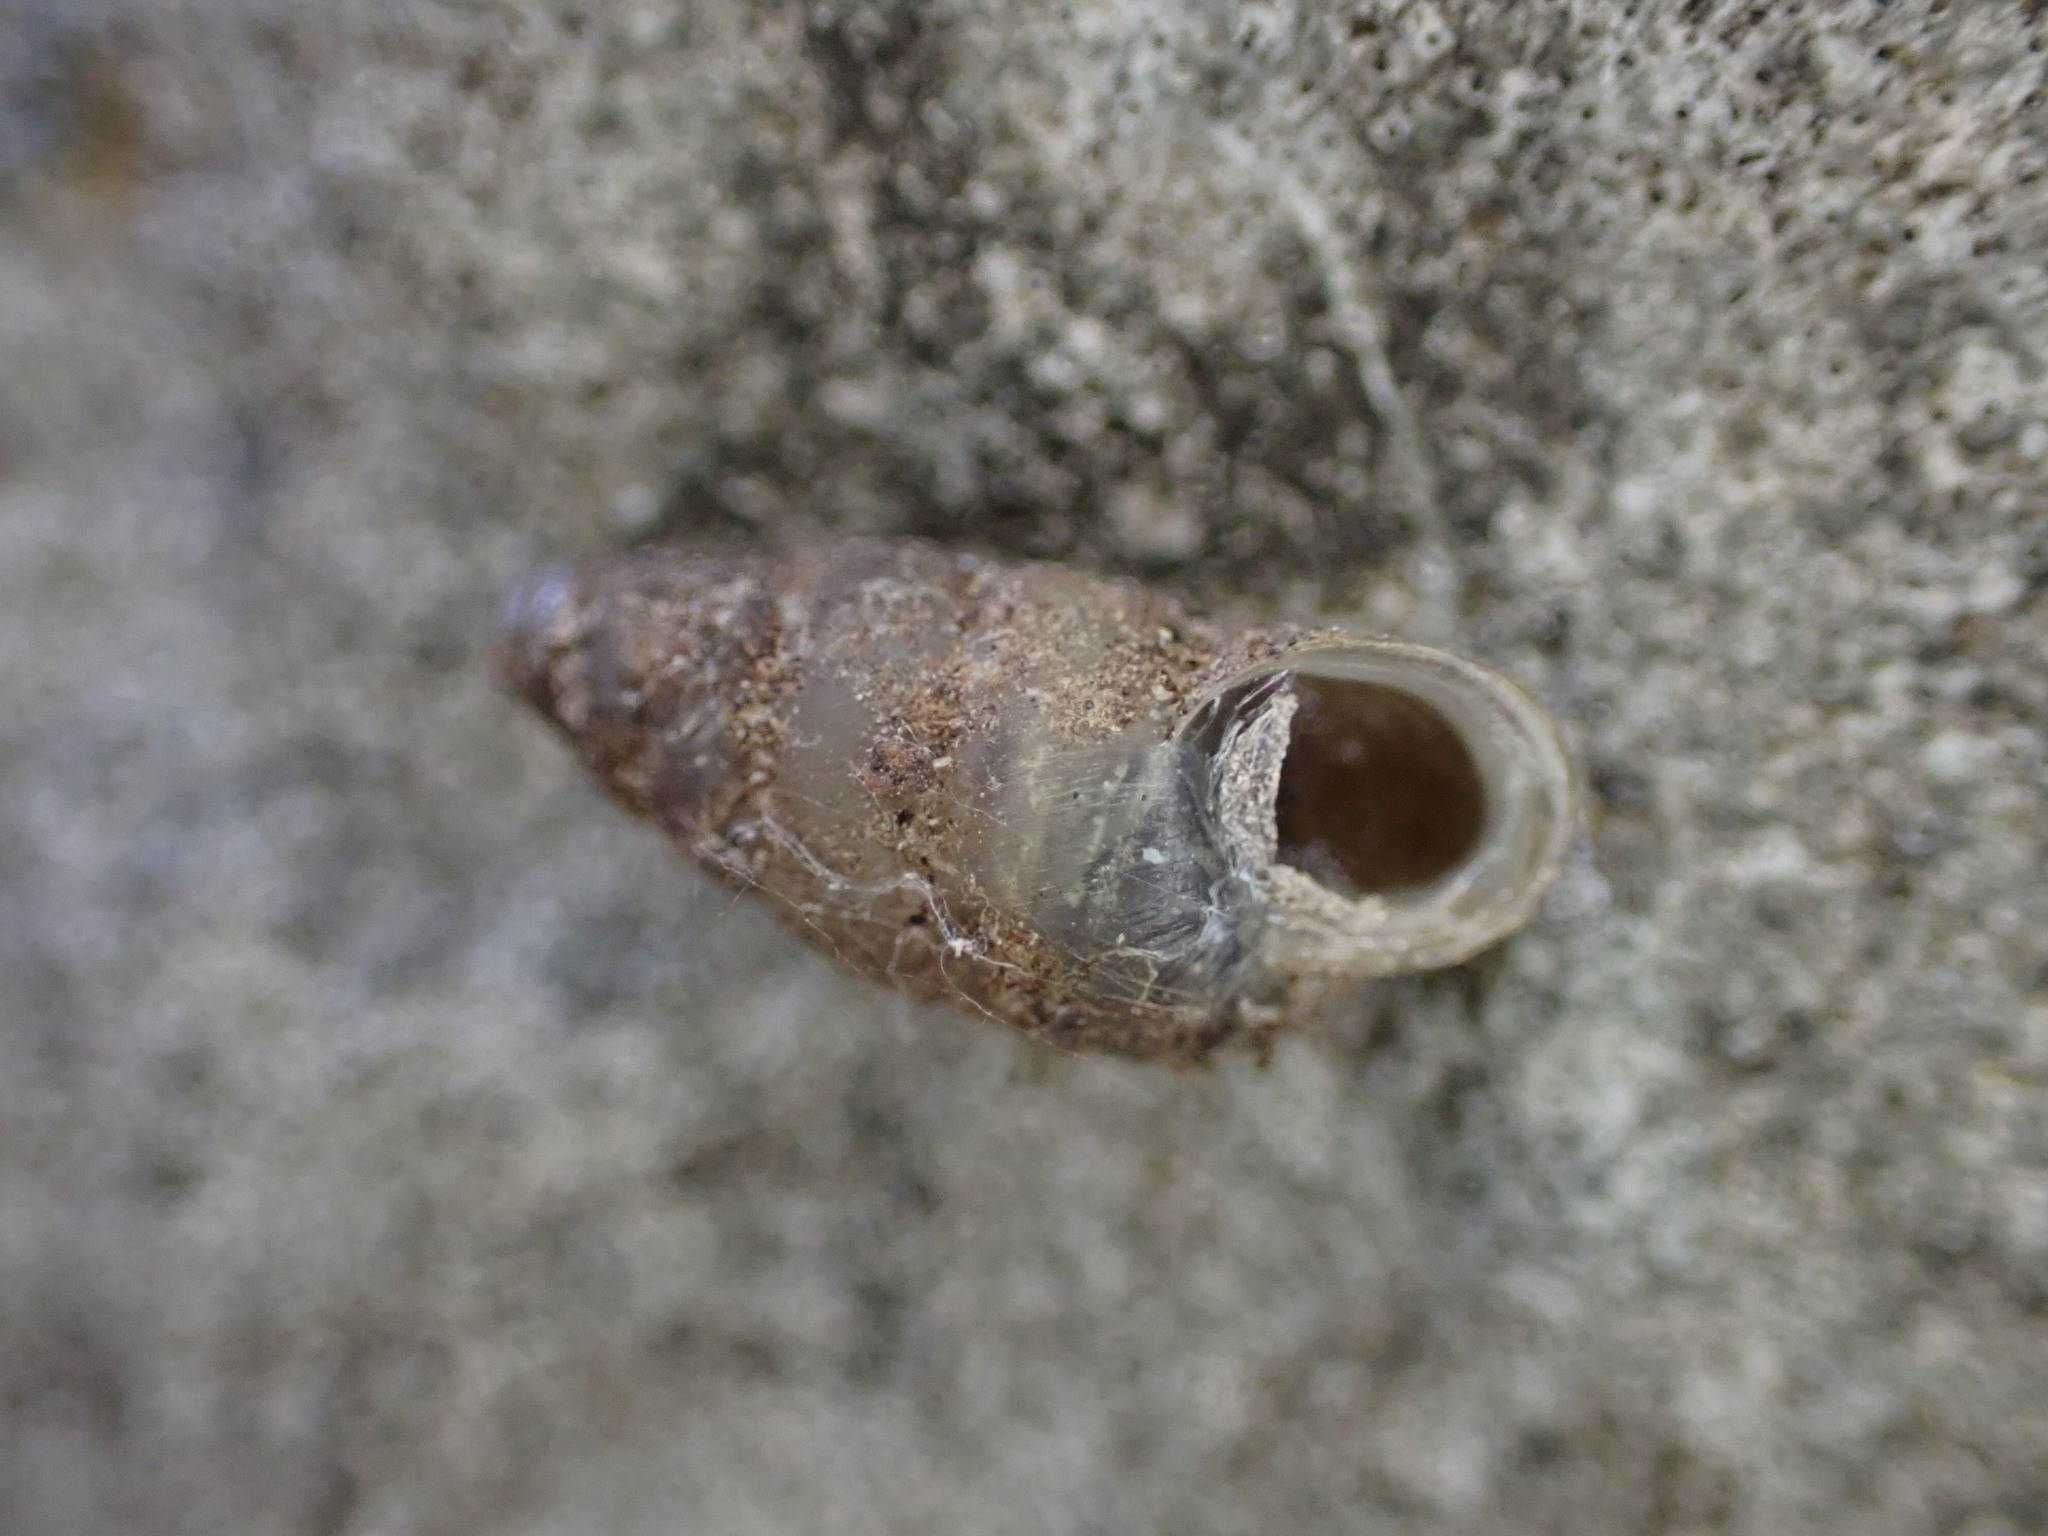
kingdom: Animalia
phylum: Mollusca
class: Gastropoda
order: Stylommatophora
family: Enidae
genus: Merdigera
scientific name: Merdigera obscura
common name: Lesser bulin
